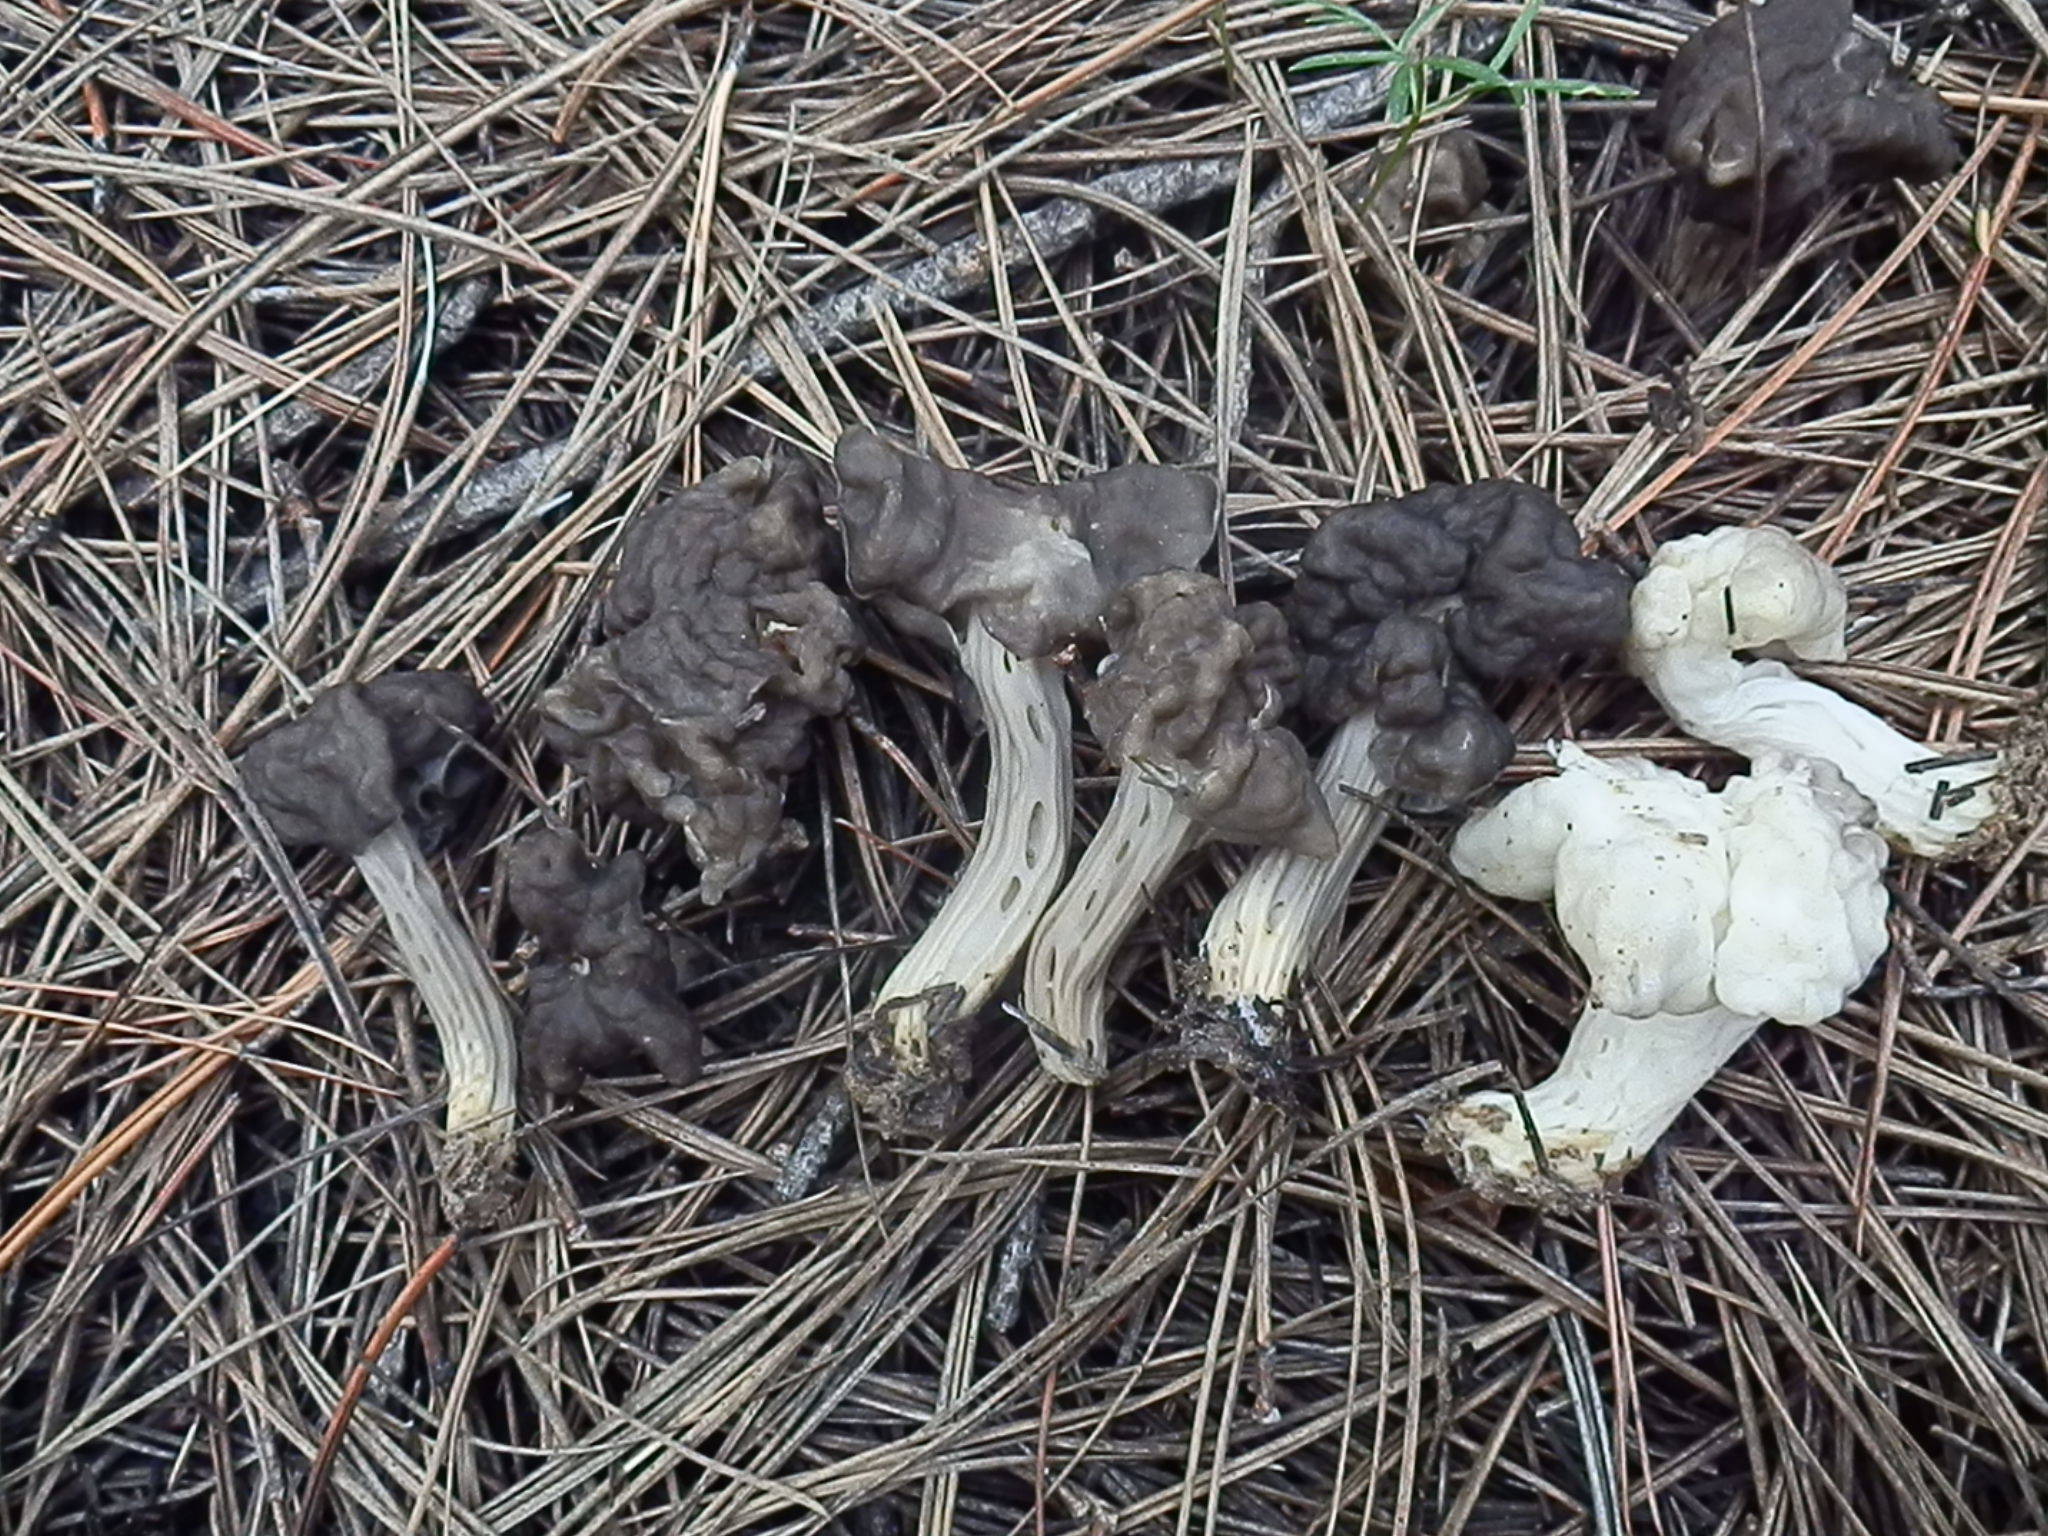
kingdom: Fungi
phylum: Ascomycota
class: Pezizomycetes
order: Pezizales
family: Helvellaceae
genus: Helvella
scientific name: Helvella vespertina
